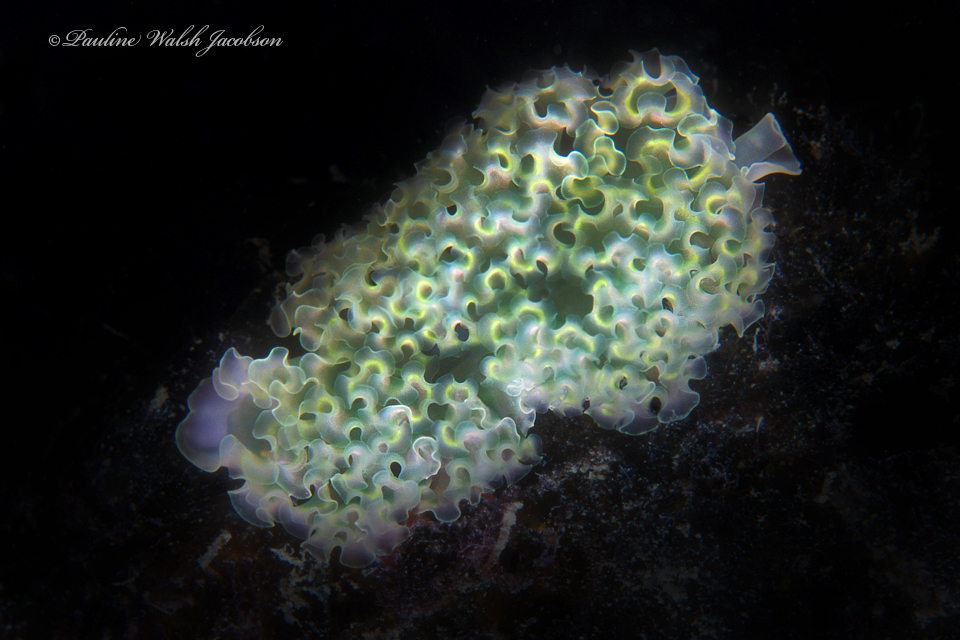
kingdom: Animalia
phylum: Mollusca
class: Gastropoda
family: Plakobranchidae
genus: Elysia
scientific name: Elysia crispata
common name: Lettuce slug
